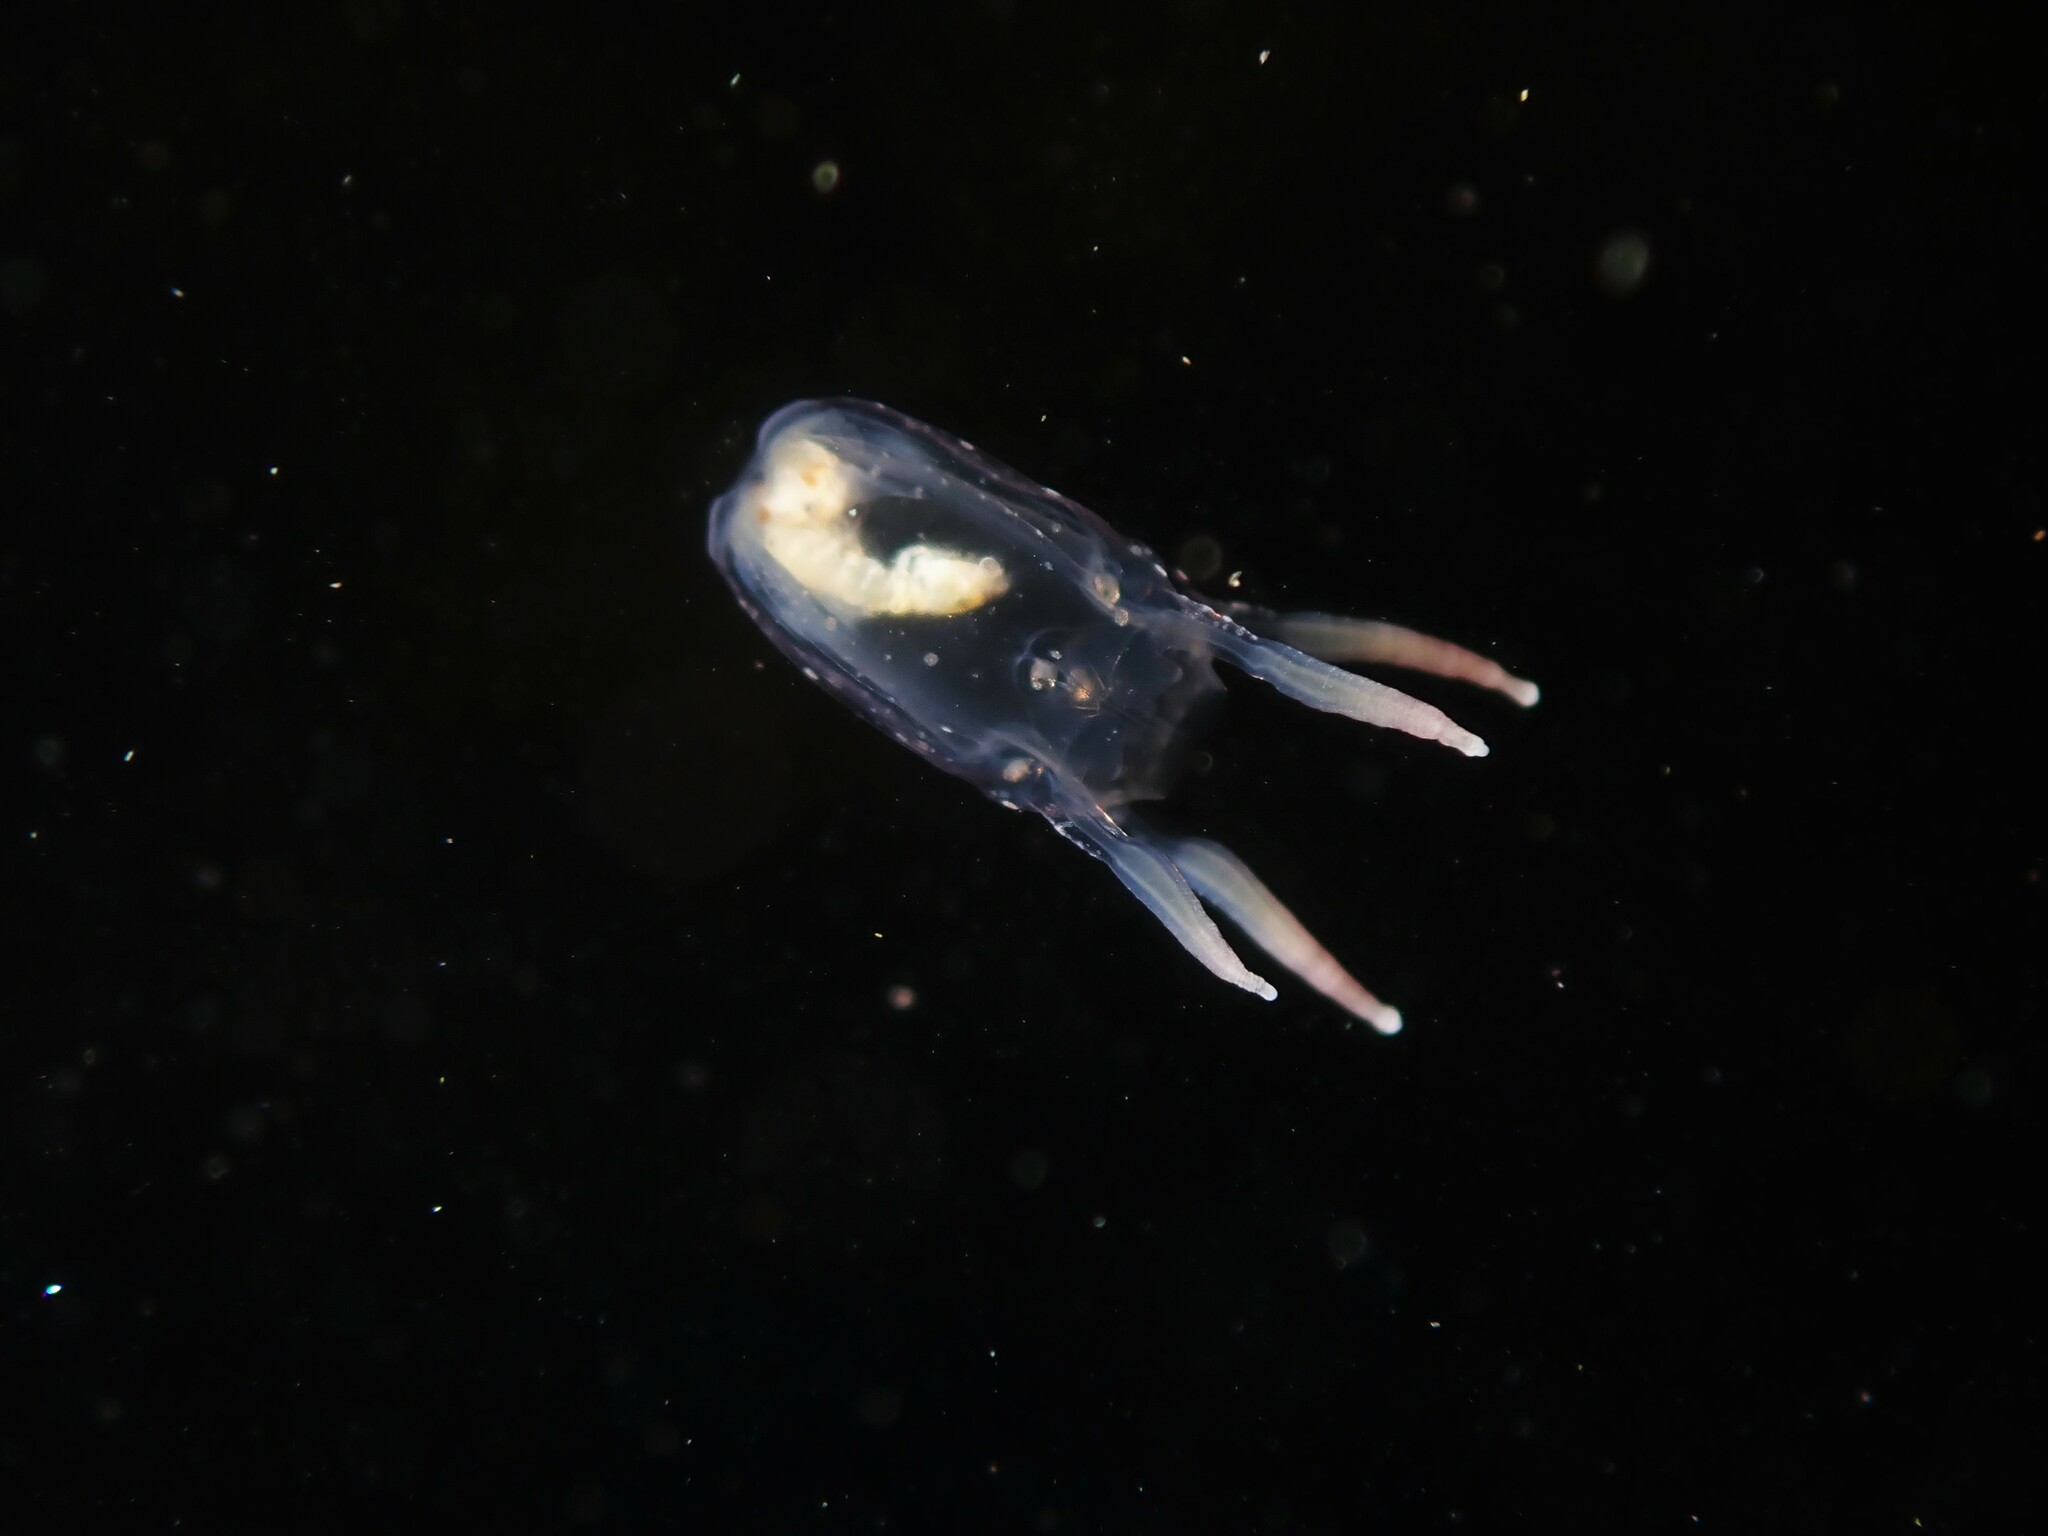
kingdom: Animalia
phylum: Cnidaria
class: Cubozoa
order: Carybdeida
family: Tripedaliidae
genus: Copula
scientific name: Copula sivickisi
